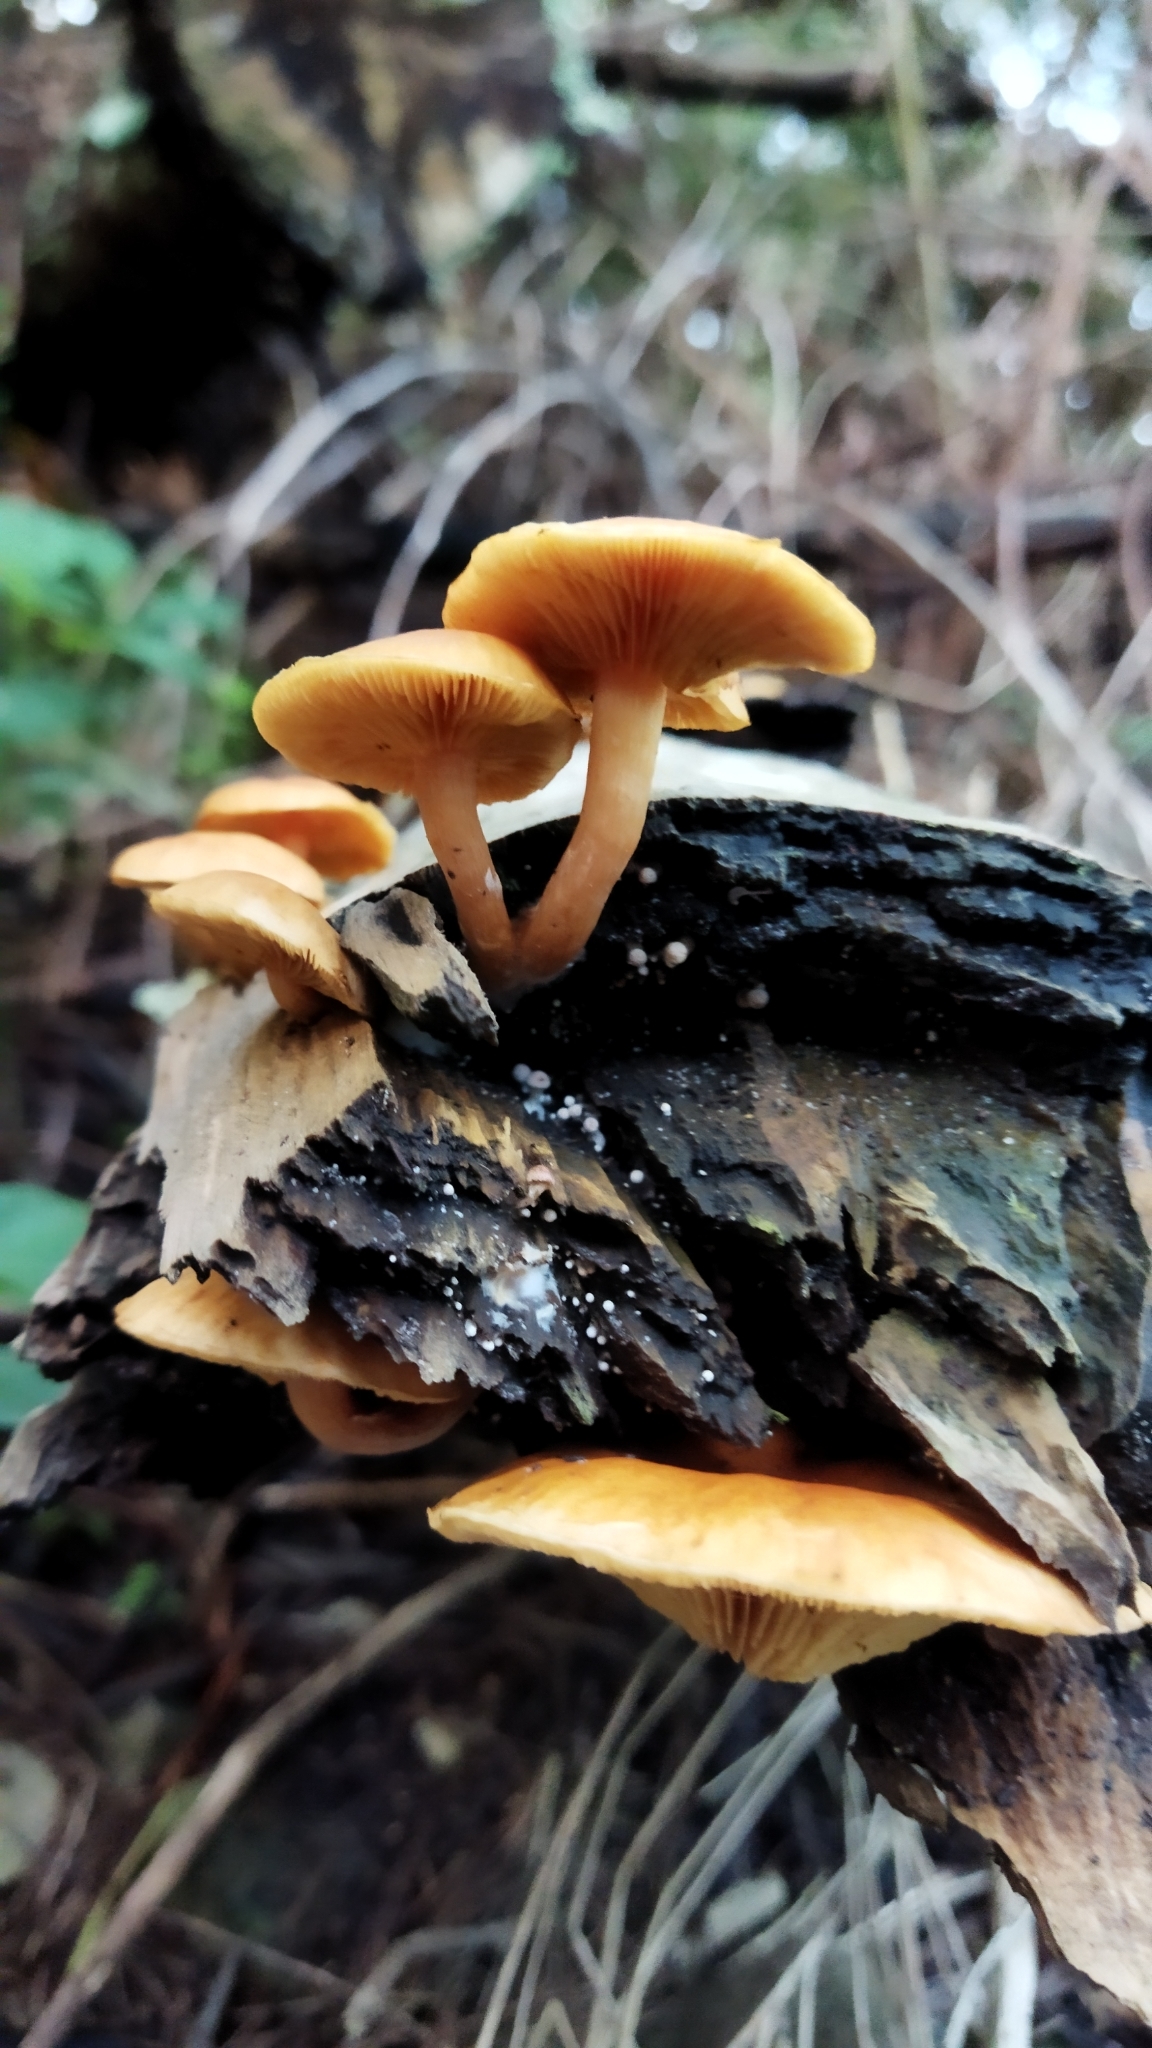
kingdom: Fungi
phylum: Basidiomycota
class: Agaricomycetes
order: Agaricales
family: Hymenogastraceae
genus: Gymnopilus
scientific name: Gymnopilus junonius
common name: Spectacular rustgill
